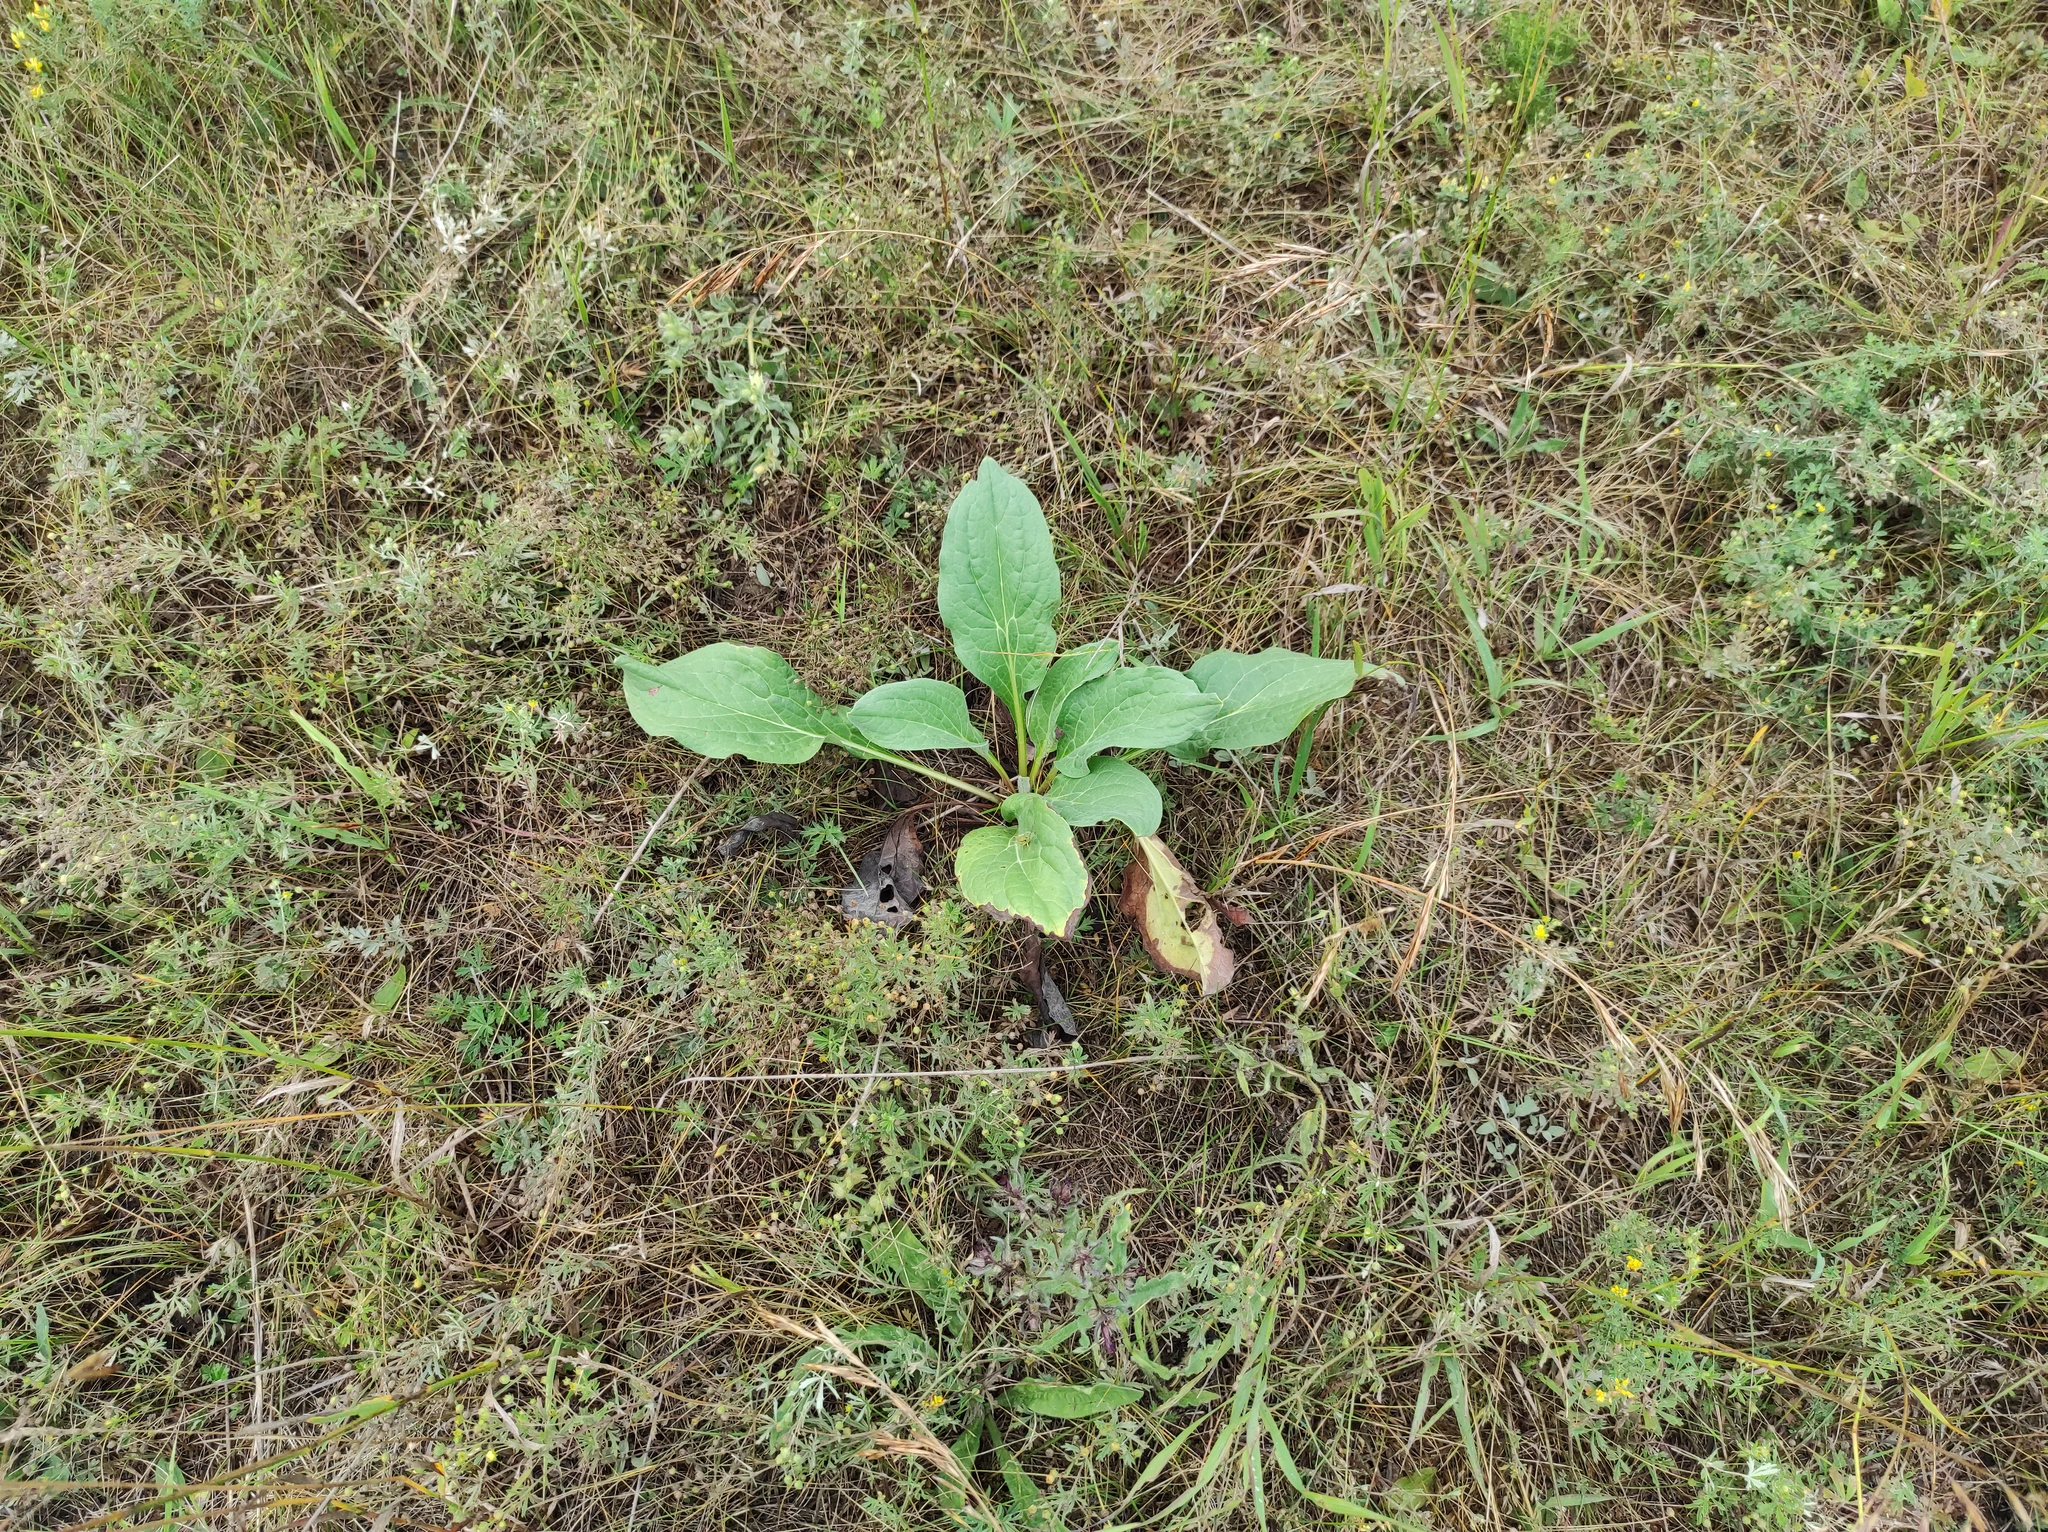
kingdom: Plantae
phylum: Tracheophyta
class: Magnoliopsida
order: Apiales
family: Apiaceae
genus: Eryngium
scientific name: Eryngium planum
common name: Blue eryngo
